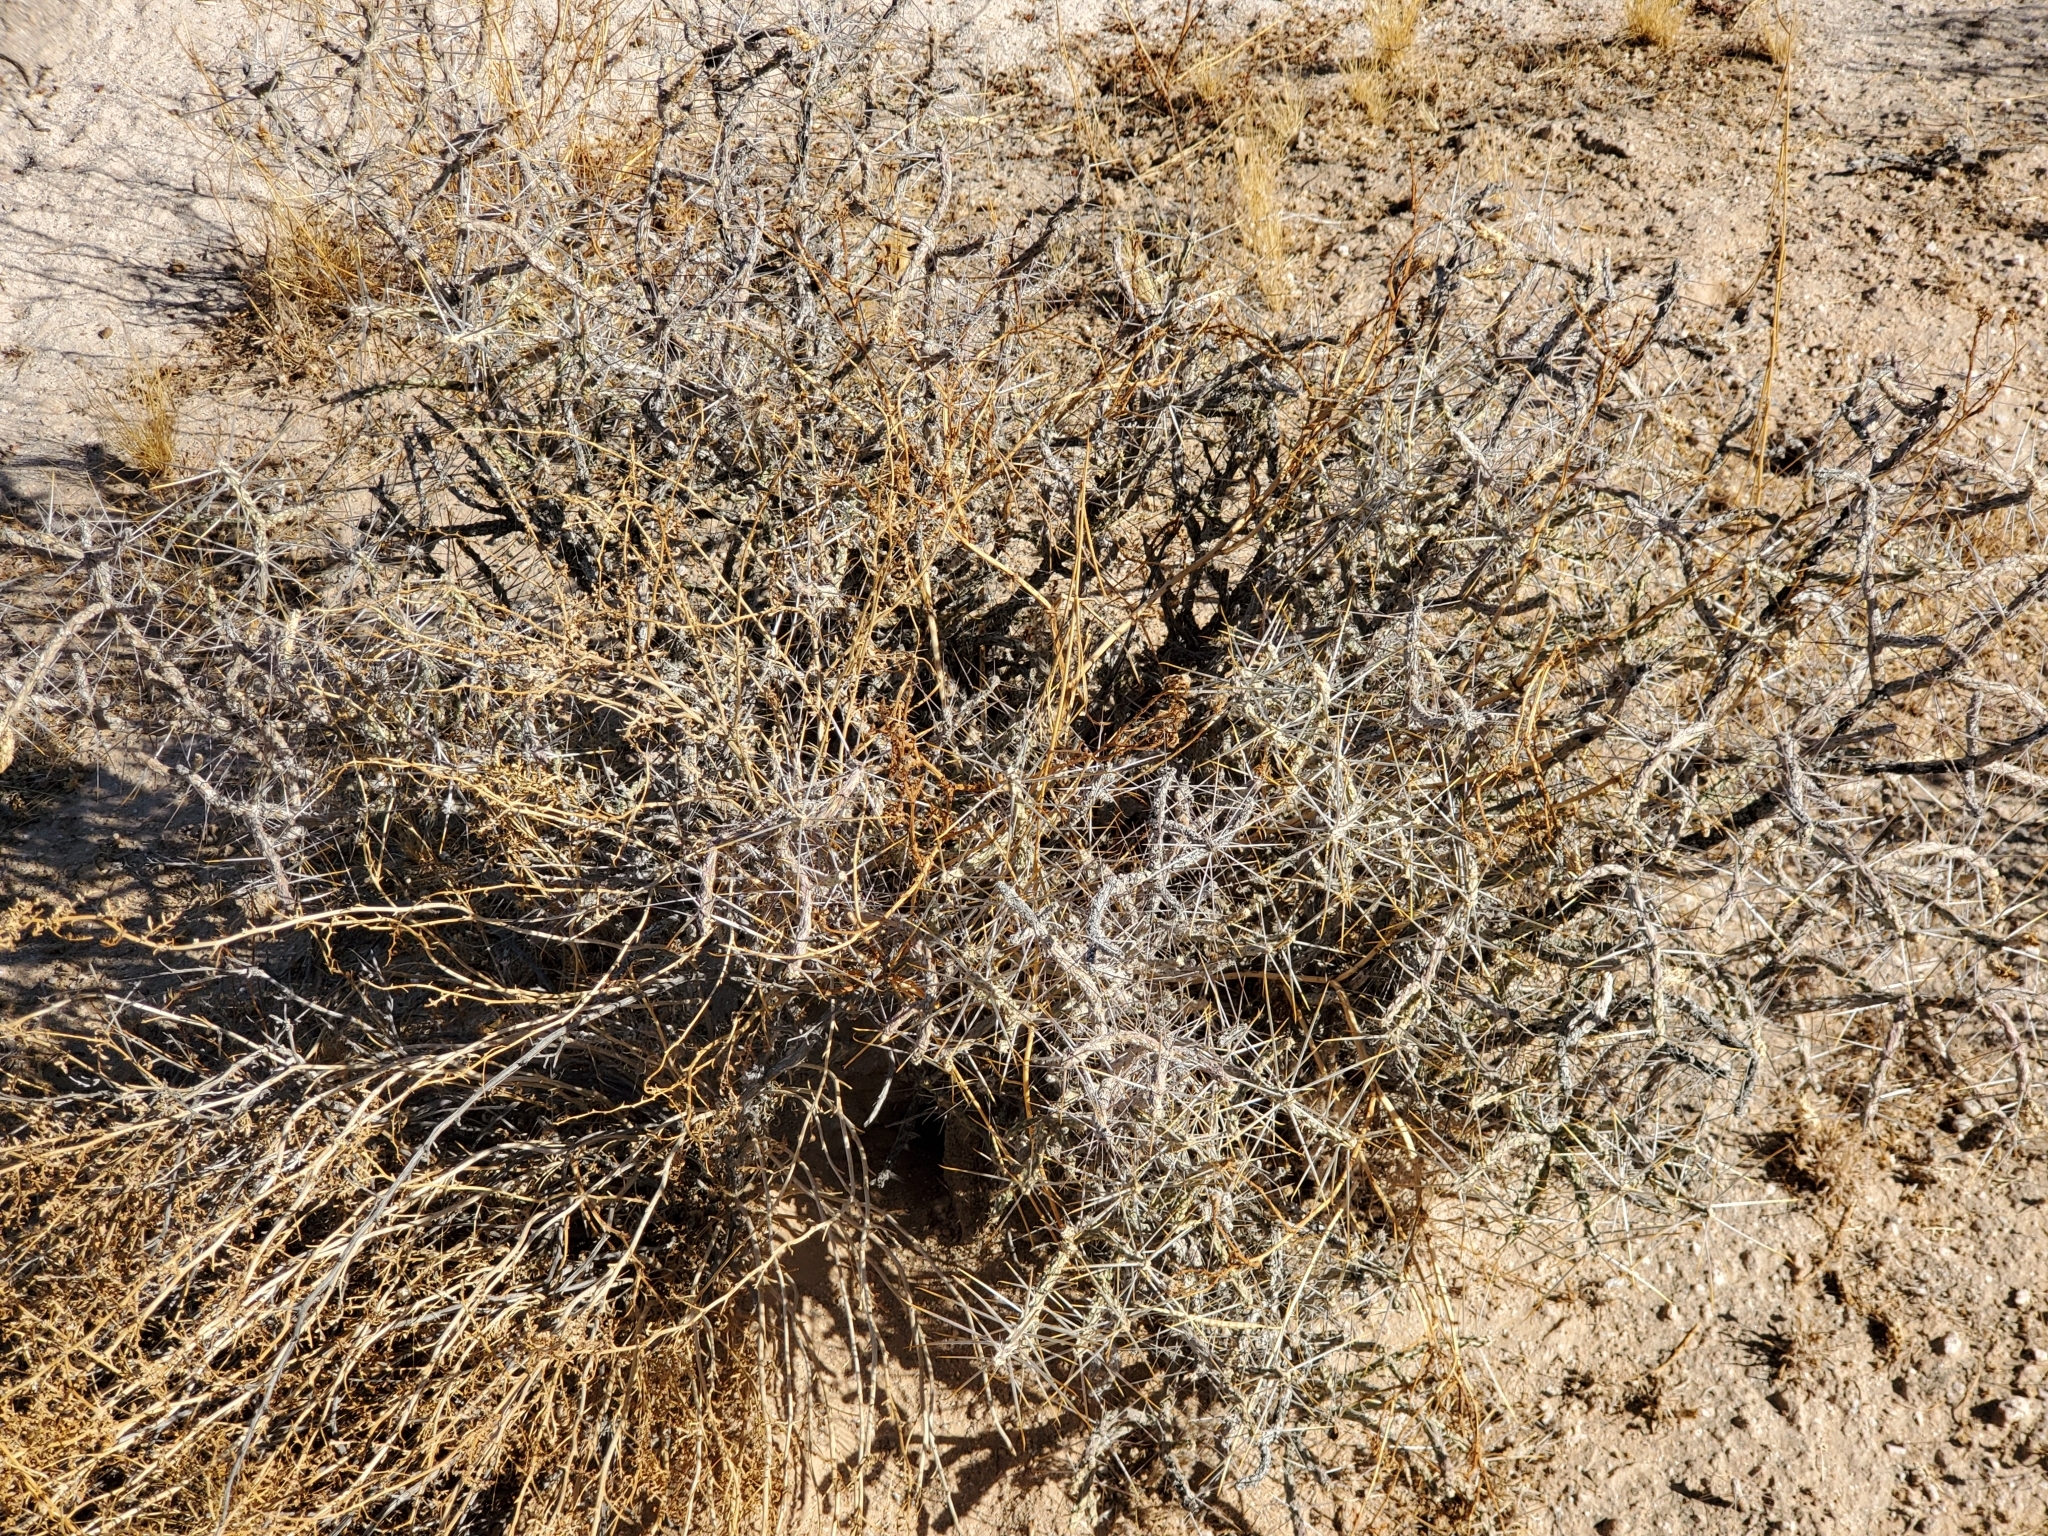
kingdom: Plantae
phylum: Tracheophyta
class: Magnoliopsida
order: Caryophyllales
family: Cactaceae
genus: Cylindropuntia
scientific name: Cylindropuntia ramosissima
